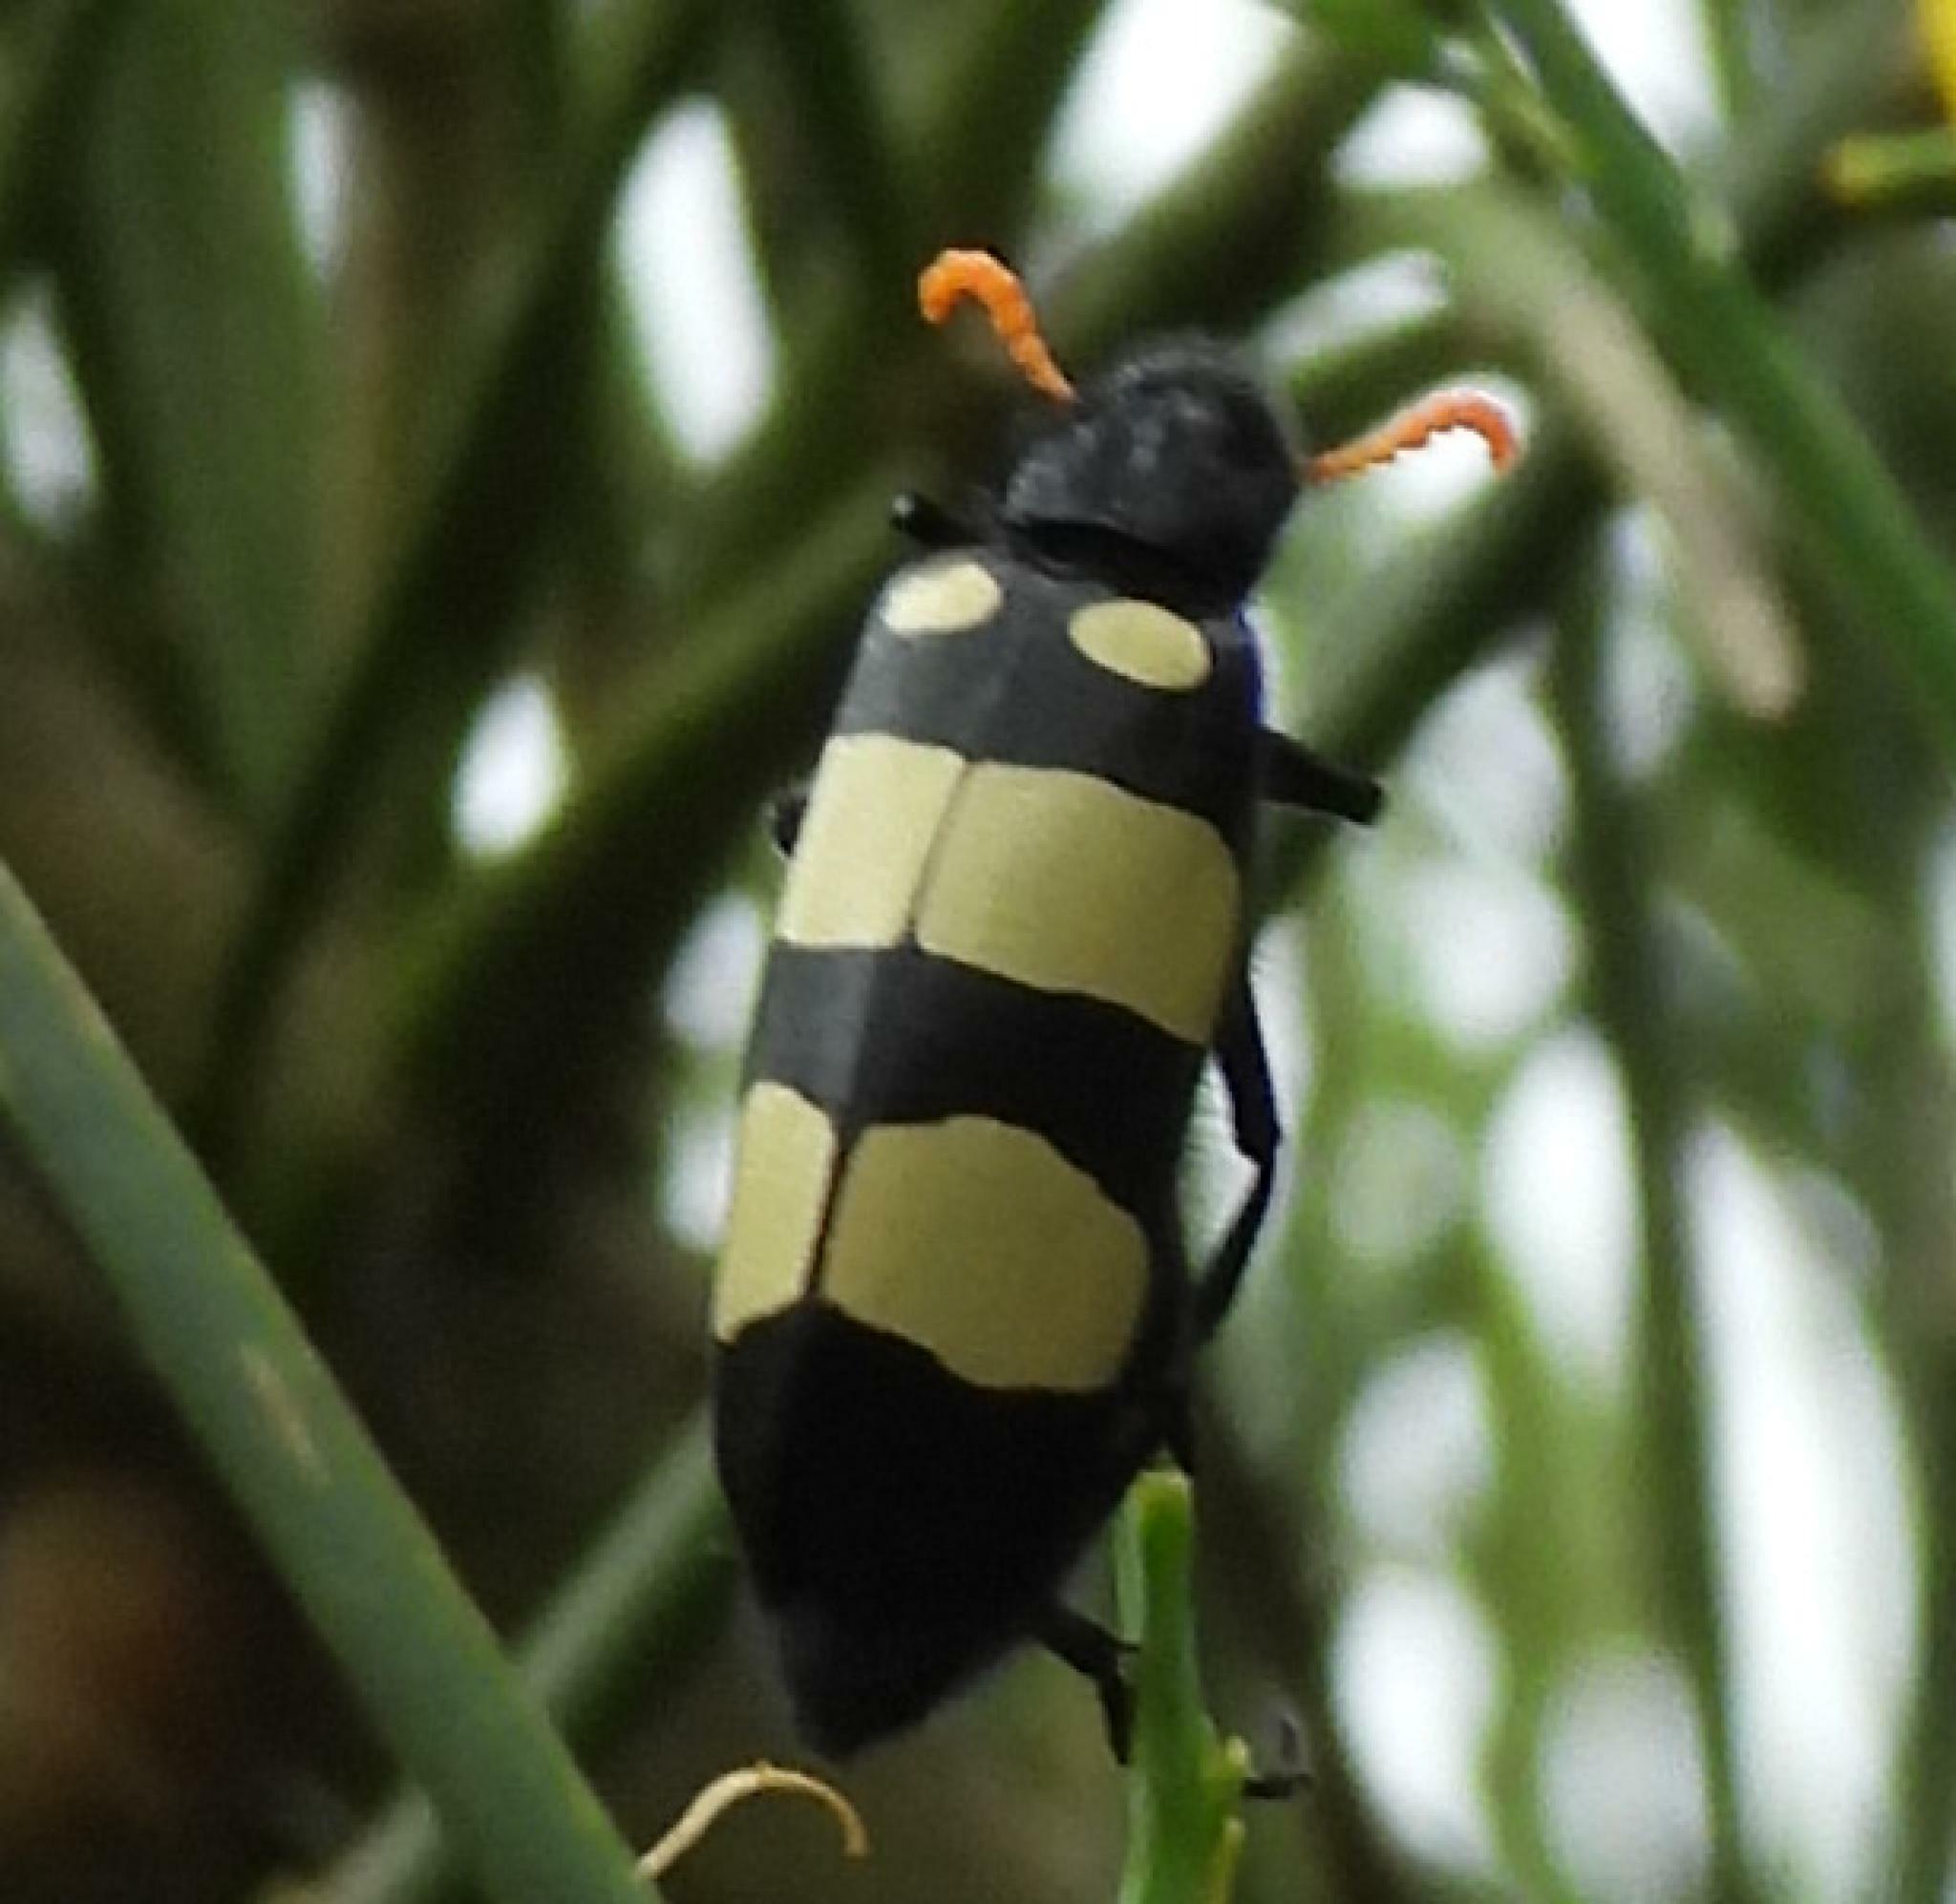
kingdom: Animalia
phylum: Arthropoda
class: Insecta
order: Coleoptera
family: Meloidae
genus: Hycleus
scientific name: Hycleus
